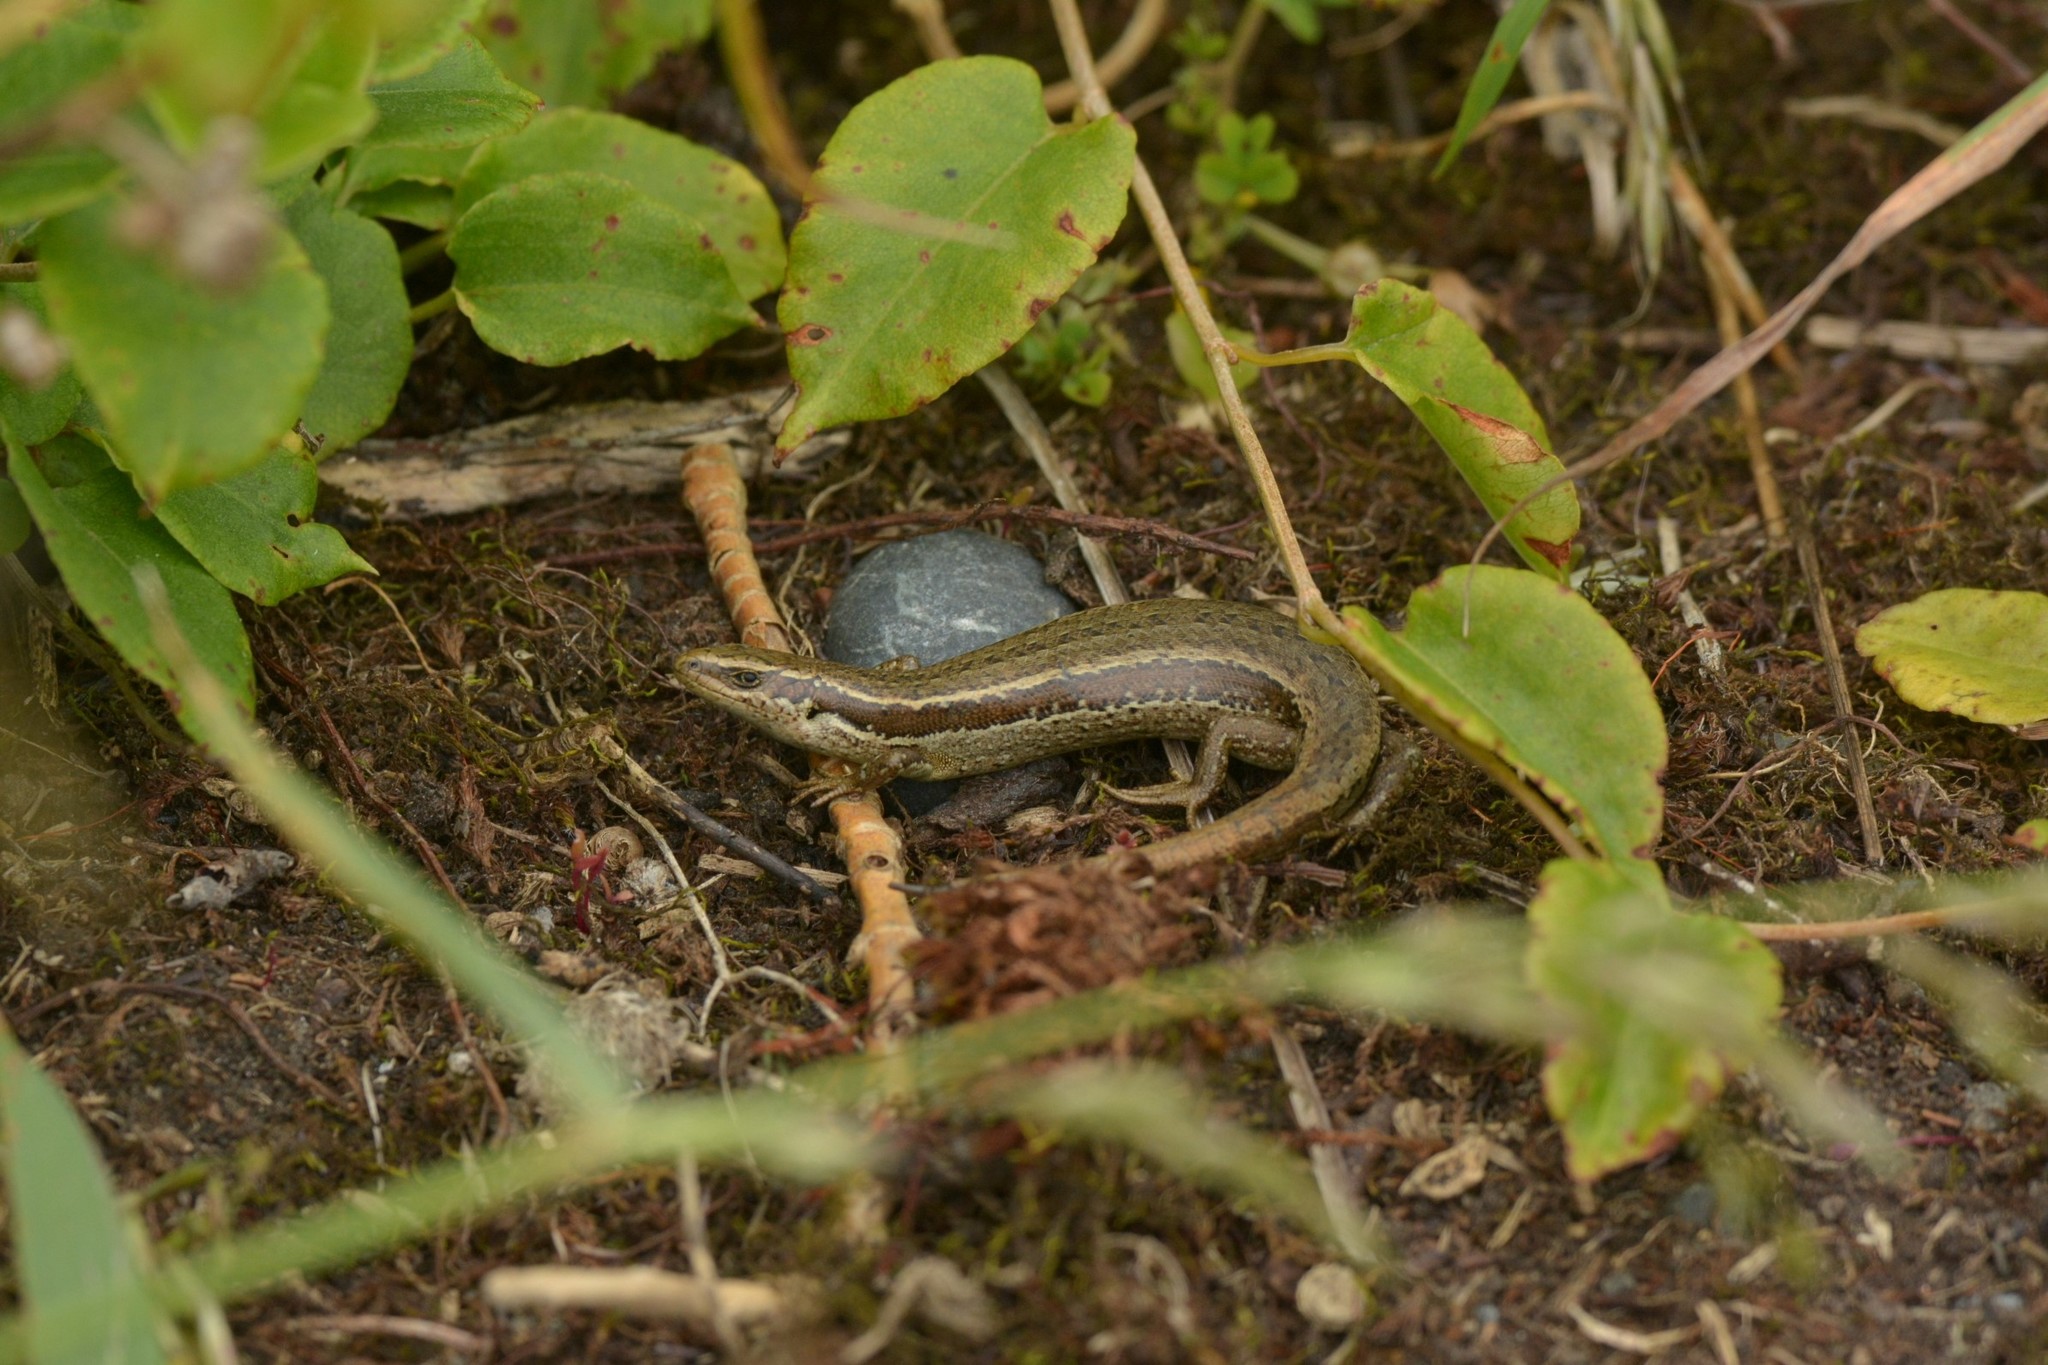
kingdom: Animalia
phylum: Chordata
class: Squamata
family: Scincidae
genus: Oligosoma
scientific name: Oligosoma polychroma
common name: Common new zealand skink
